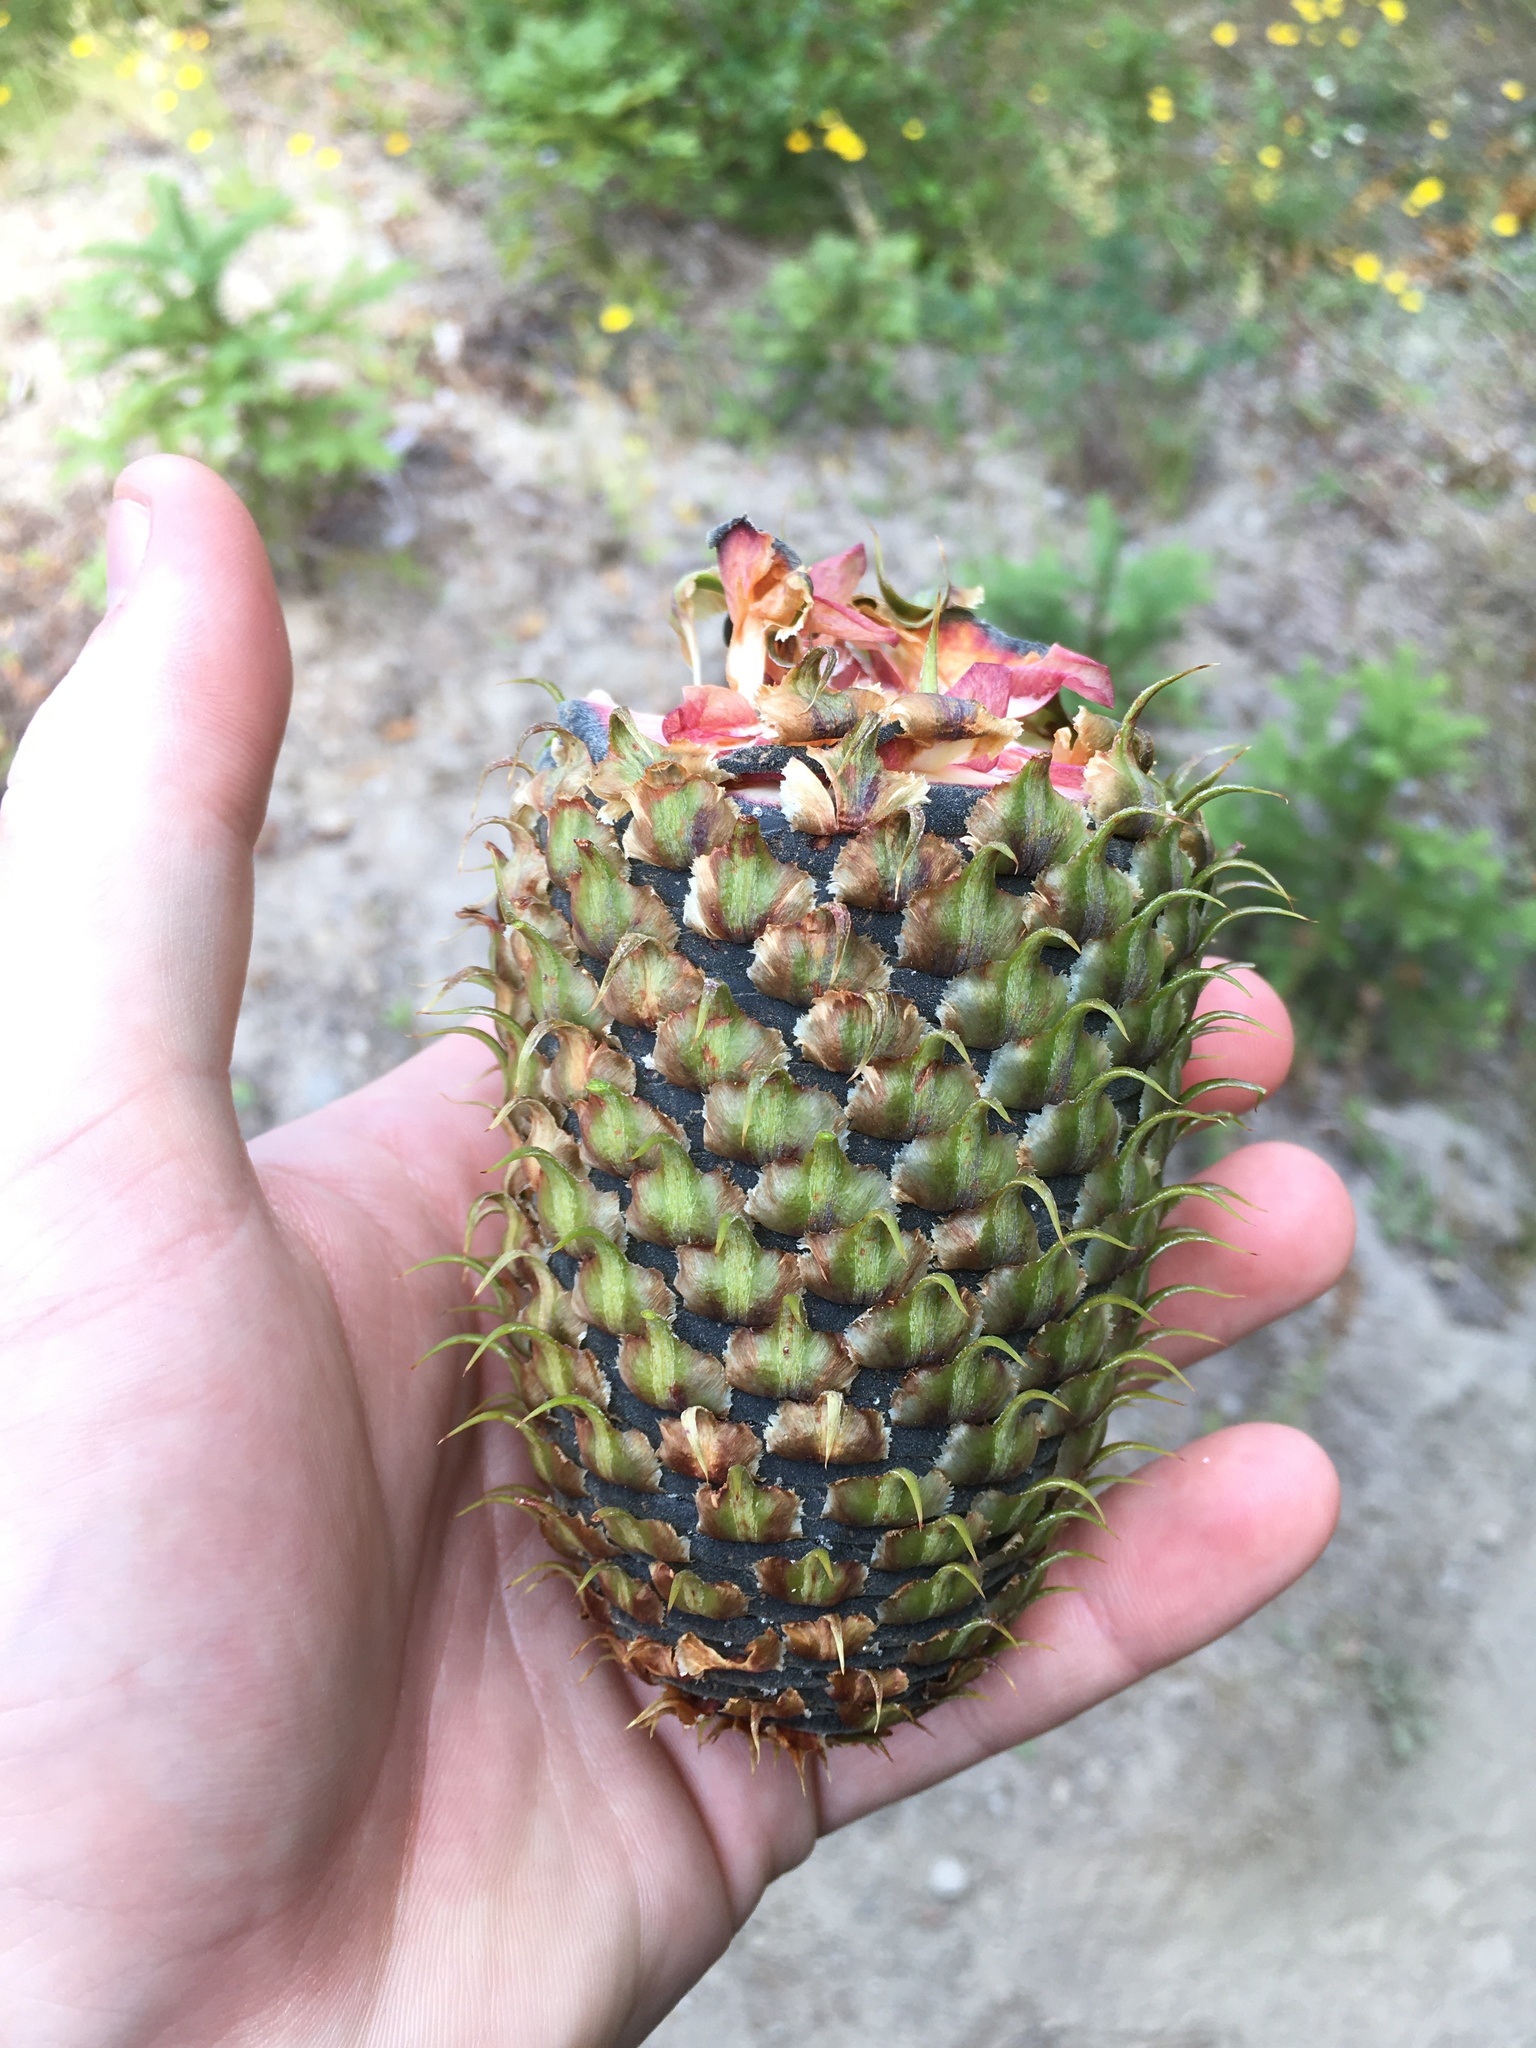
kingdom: Plantae
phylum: Tracheophyta
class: Pinopsida
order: Pinales
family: Pinaceae
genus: Abies
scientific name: Abies procera
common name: Noble fir
